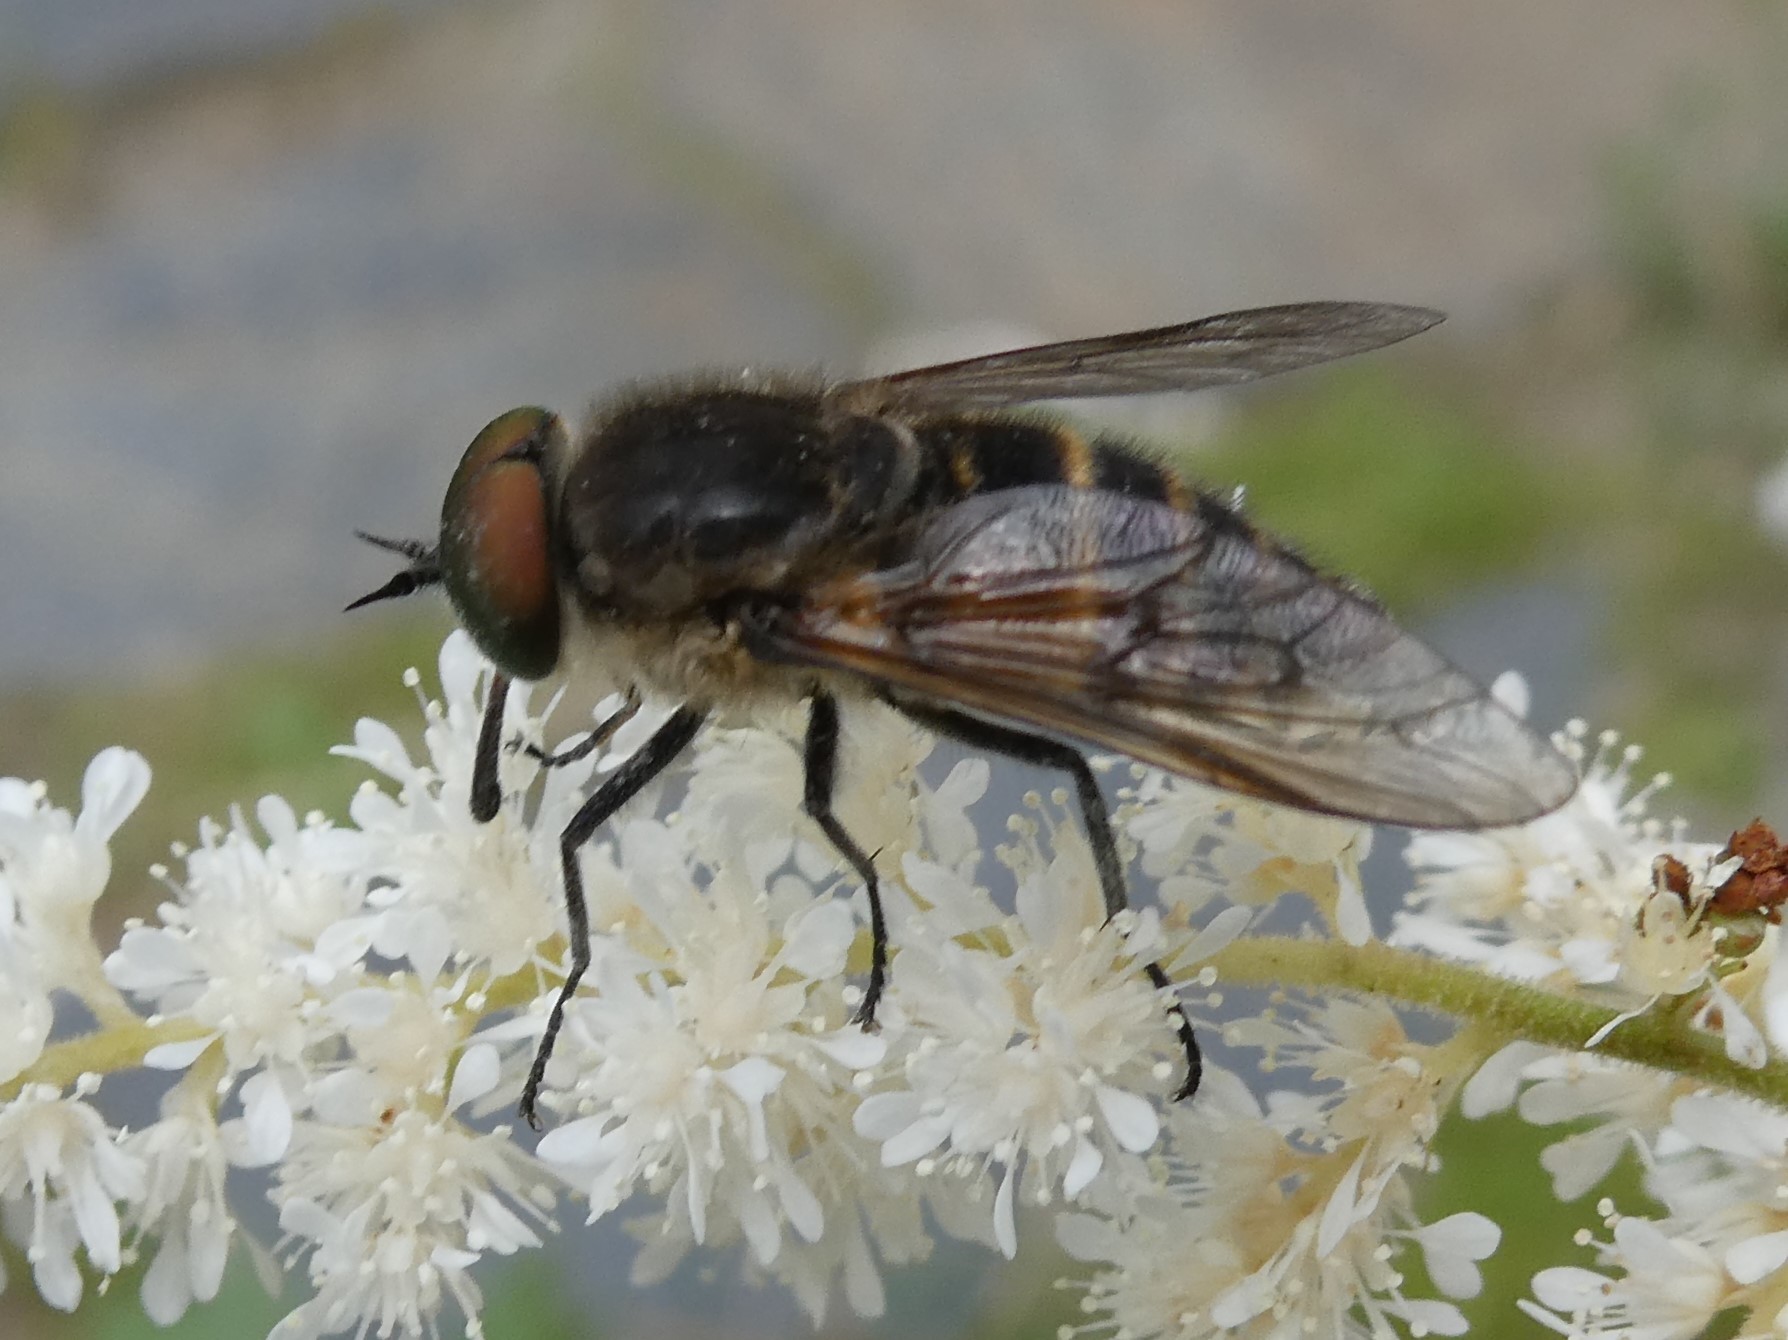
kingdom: Animalia
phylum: Arthropoda
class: Insecta
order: Diptera
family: Tabanidae
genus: Stonemyia
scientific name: Stonemyia tranquilla
